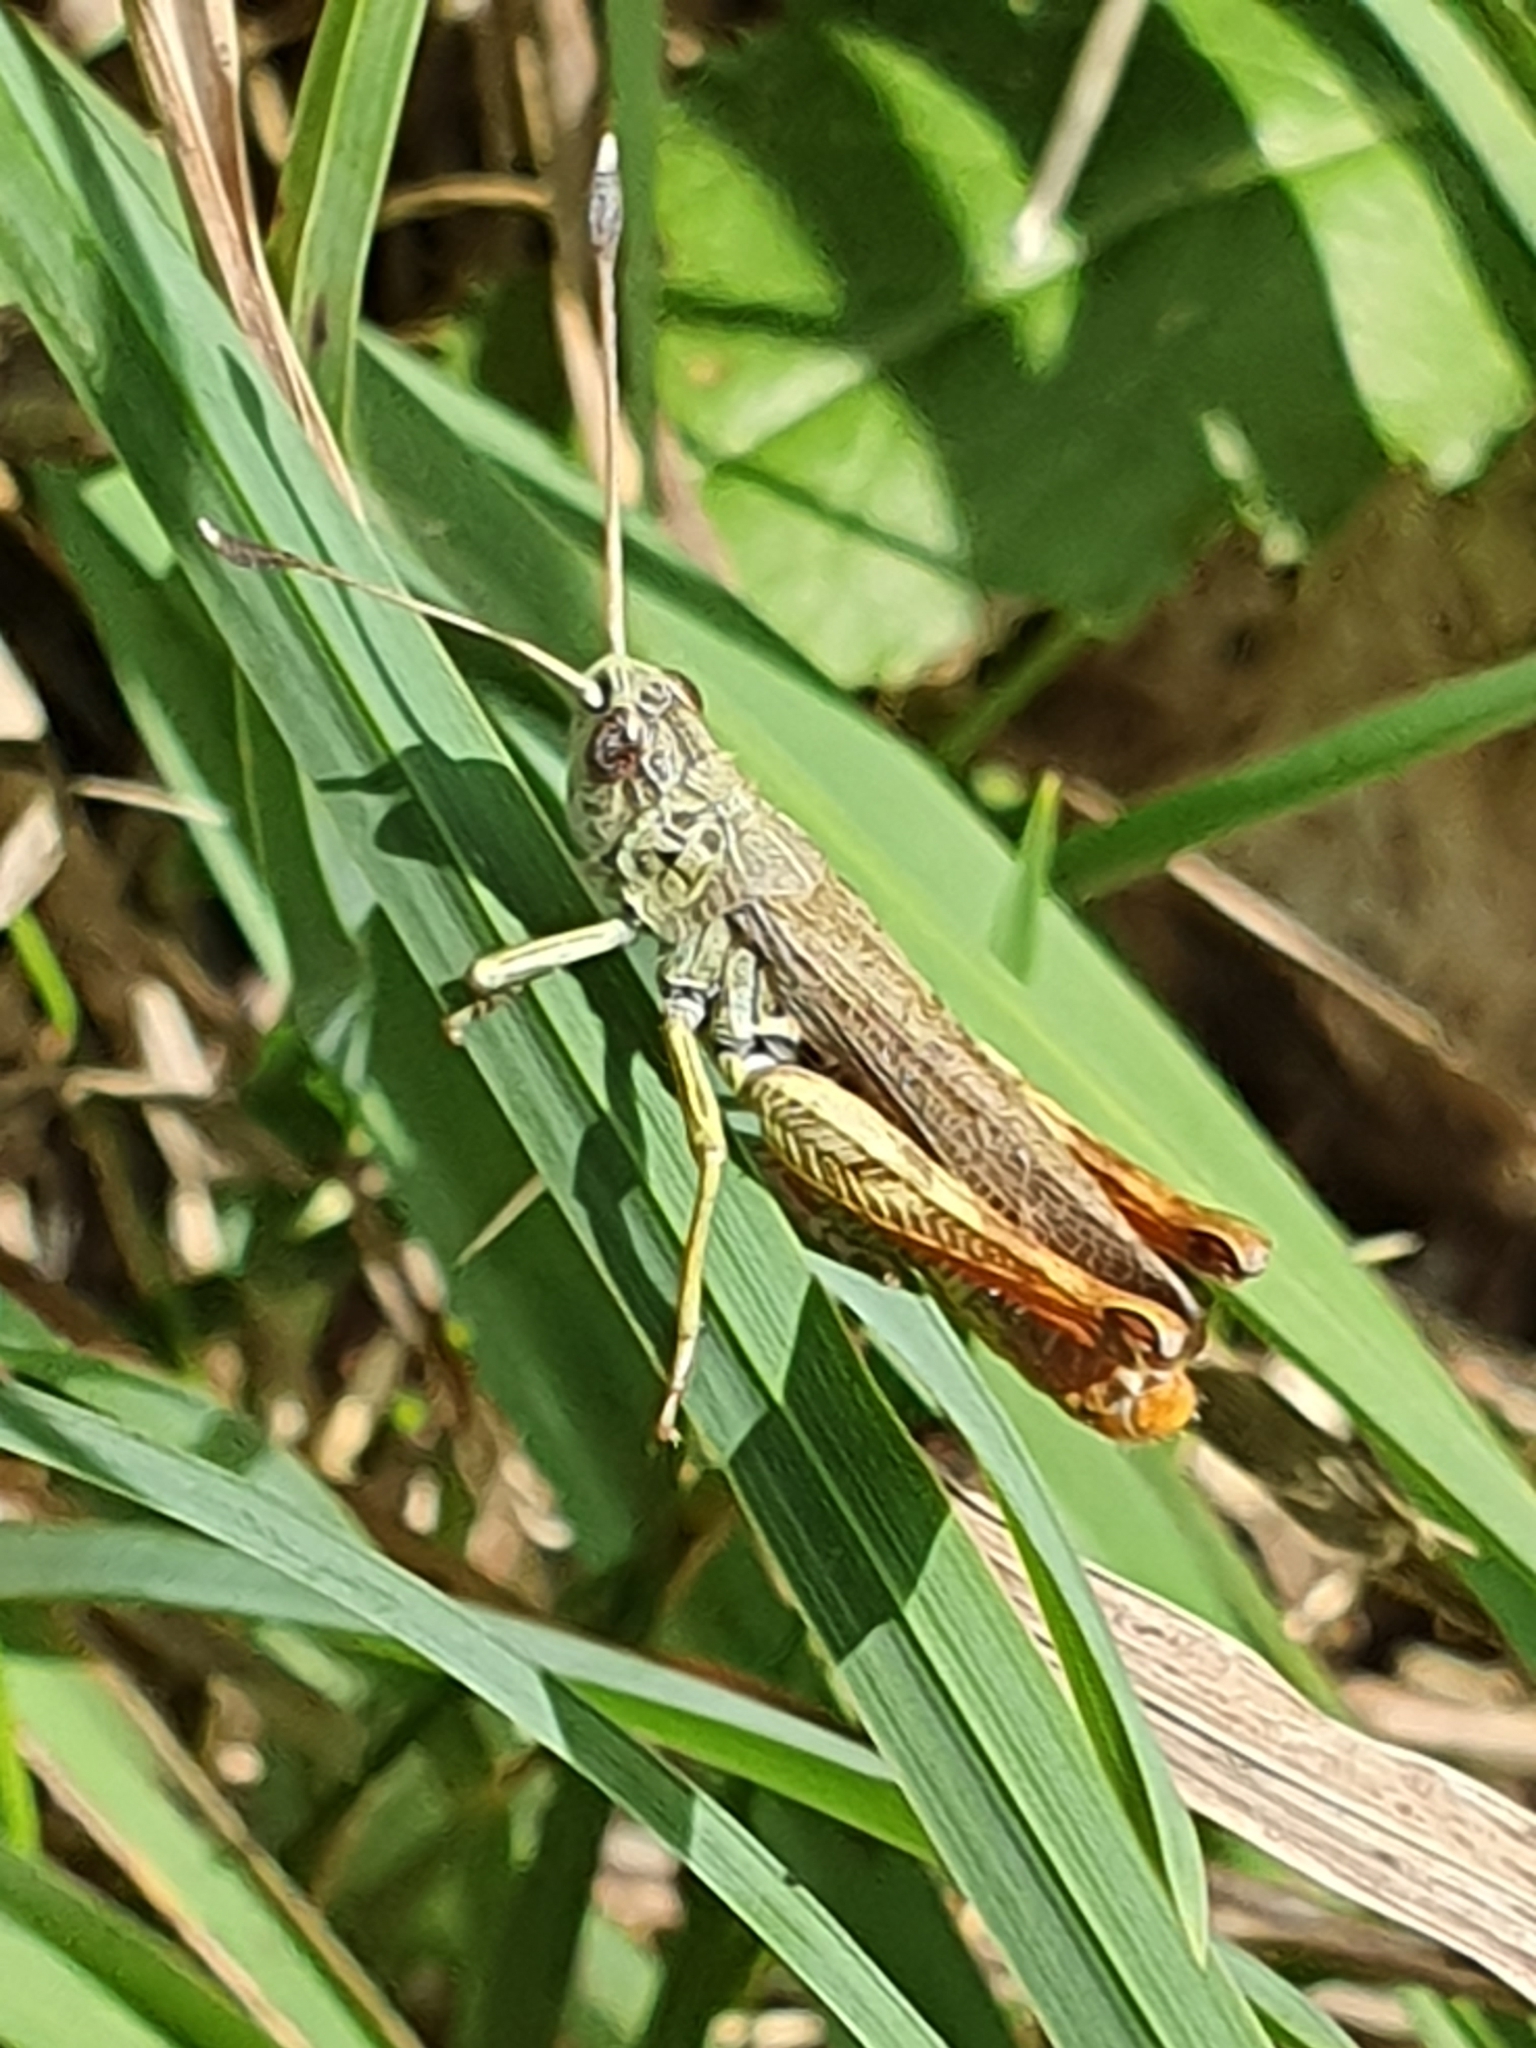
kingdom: Animalia
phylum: Arthropoda
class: Insecta
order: Orthoptera
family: Acrididae
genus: Gomphocerippus
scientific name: Gomphocerippus rufus
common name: Rufous grasshopper
